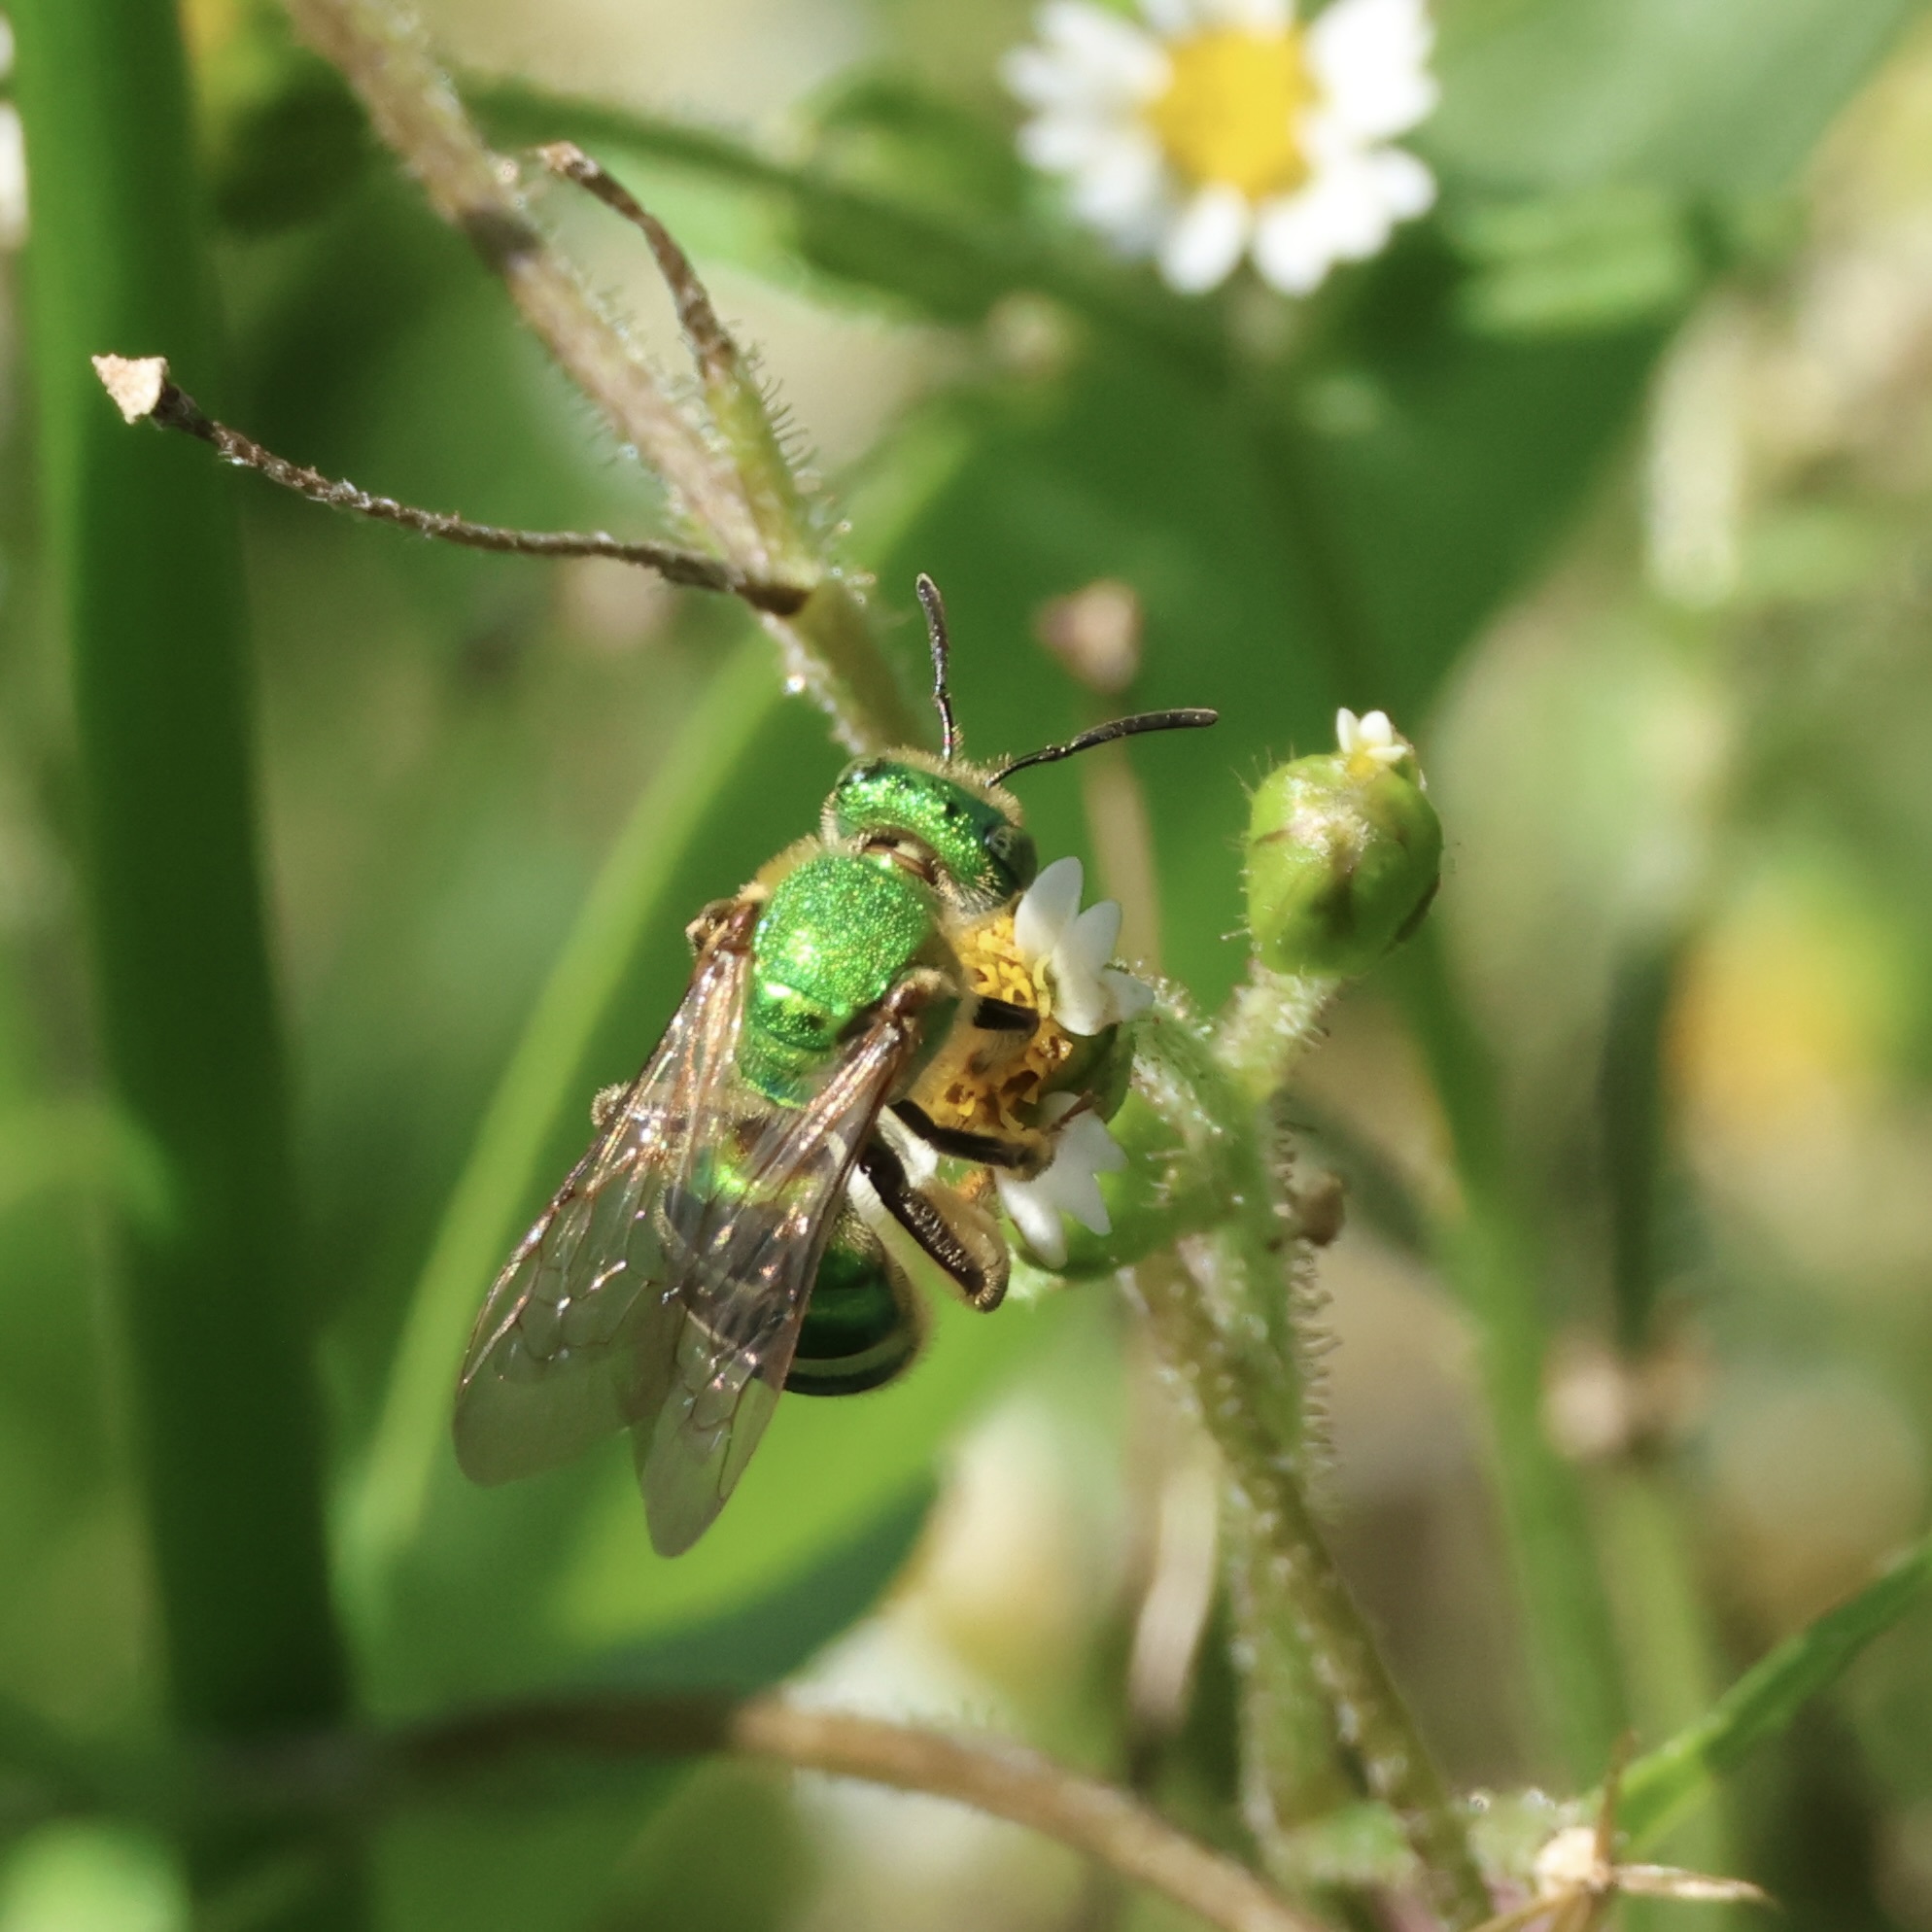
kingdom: Animalia
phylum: Arthropoda
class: Insecta
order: Hymenoptera
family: Halictidae
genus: Agapostemon
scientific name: Agapostemon sericeus
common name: Silky striped sweat bee
